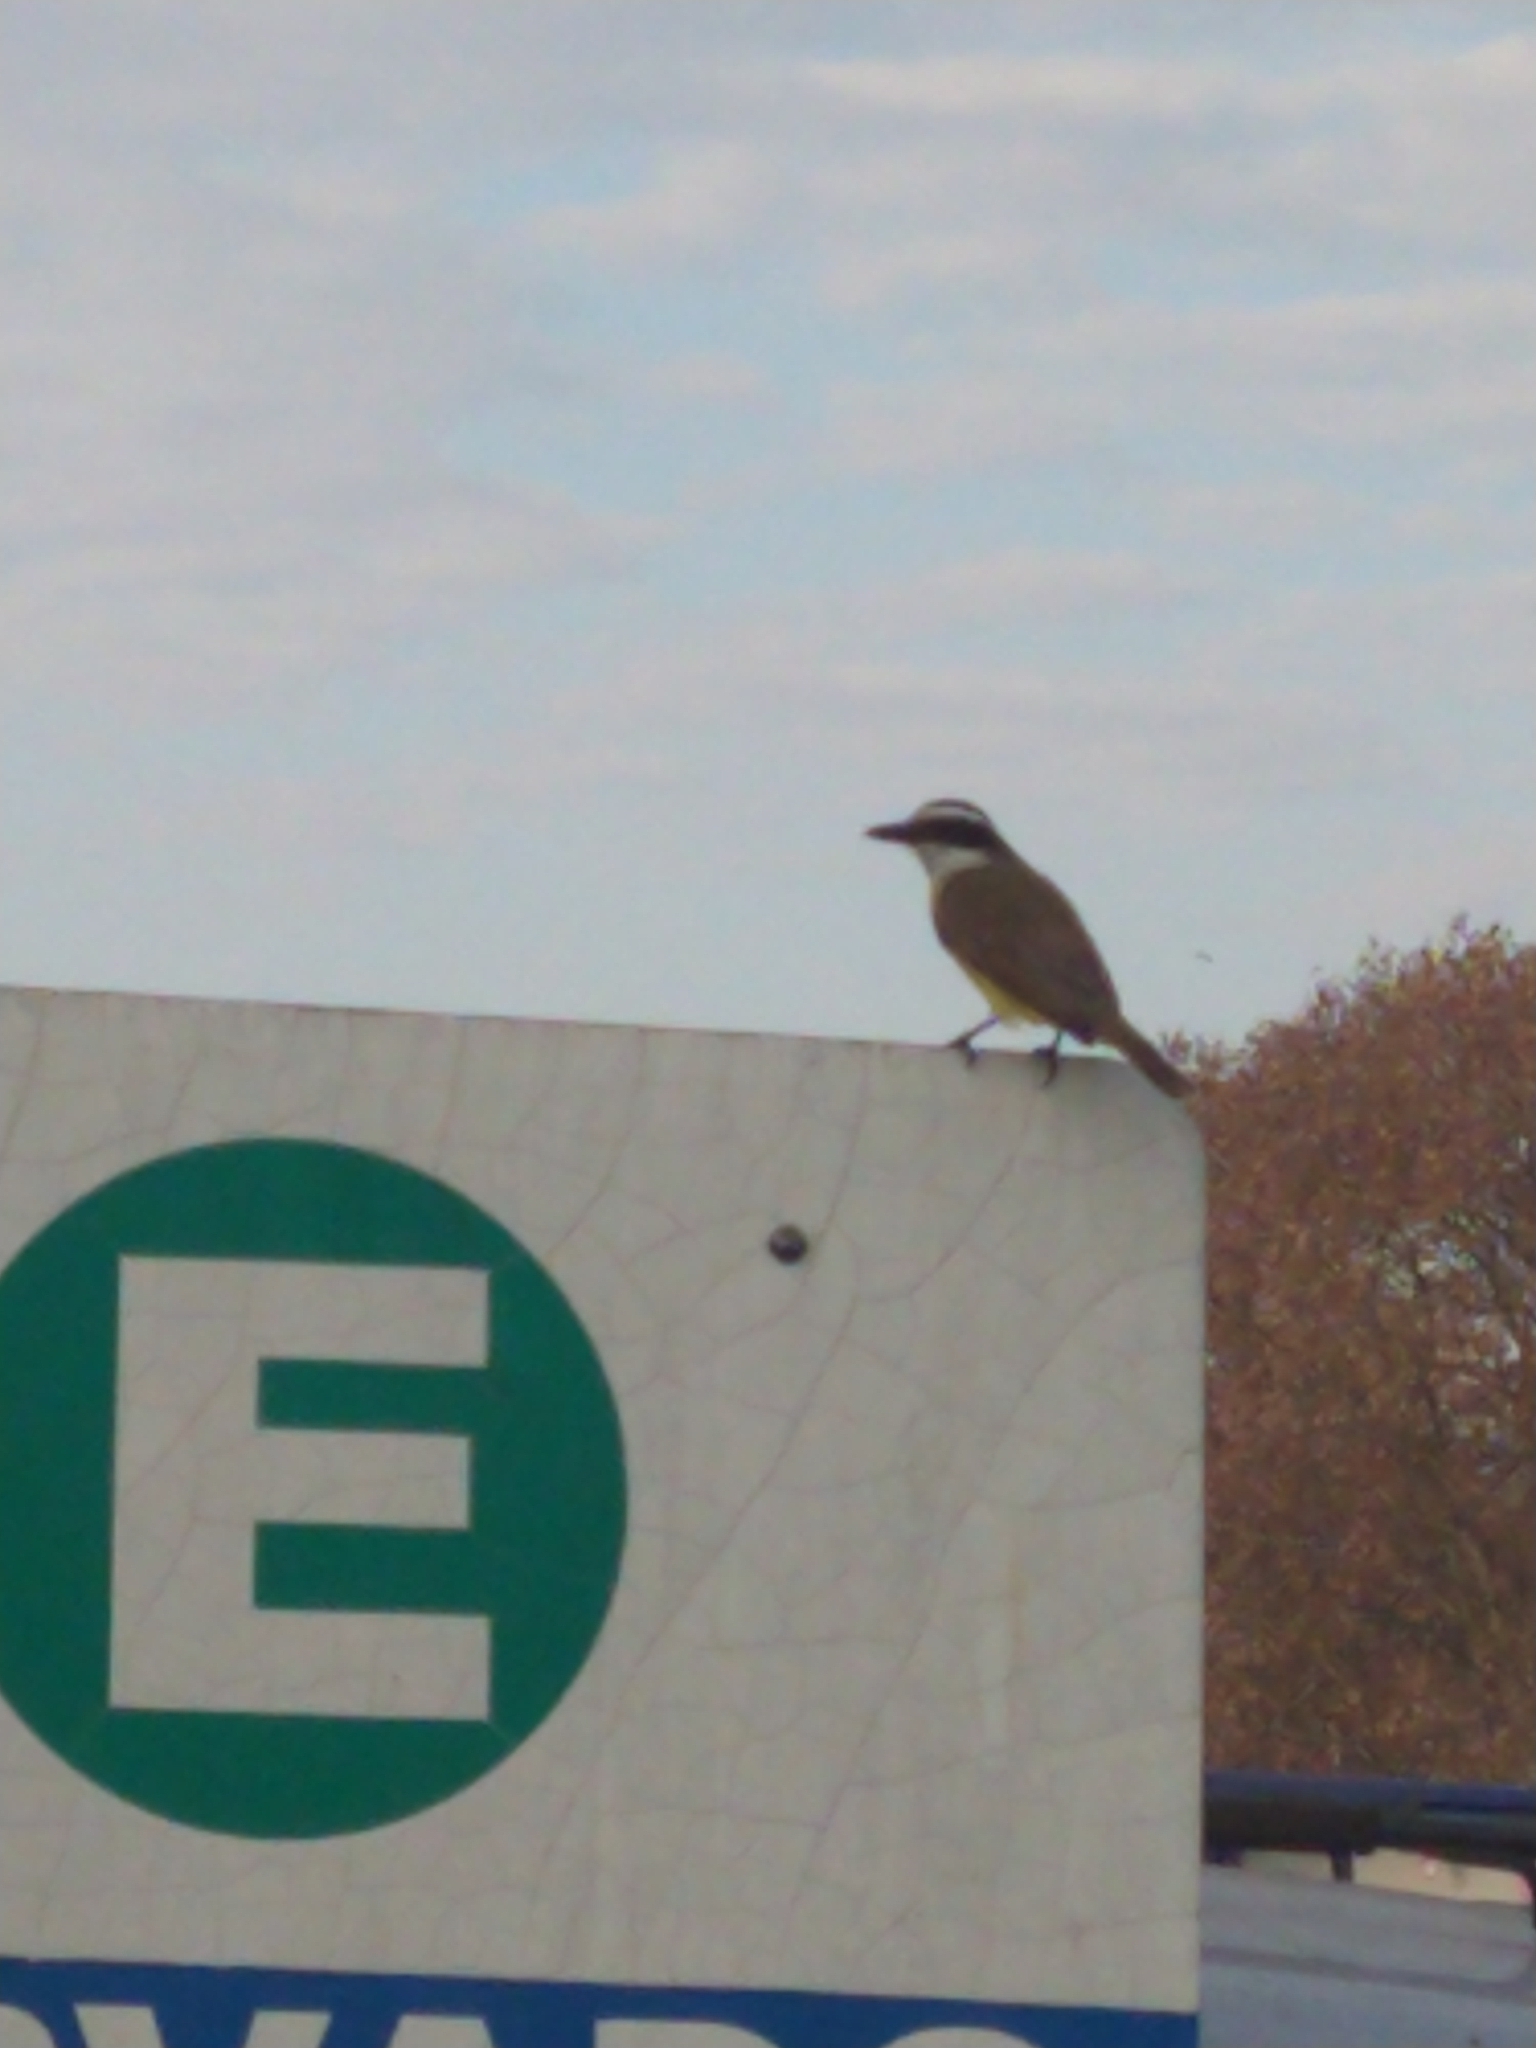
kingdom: Animalia
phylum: Chordata
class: Aves
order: Passeriformes
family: Tyrannidae
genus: Pitangus
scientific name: Pitangus sulphuratus
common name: Great kiskadee
